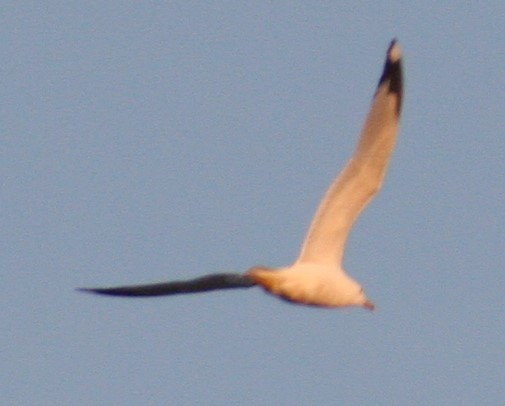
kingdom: Animalia
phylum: Chordata
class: Aves
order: Charadriiformes
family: Laridae
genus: Larus
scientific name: Larus delawarensis
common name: Ring-billed gull
